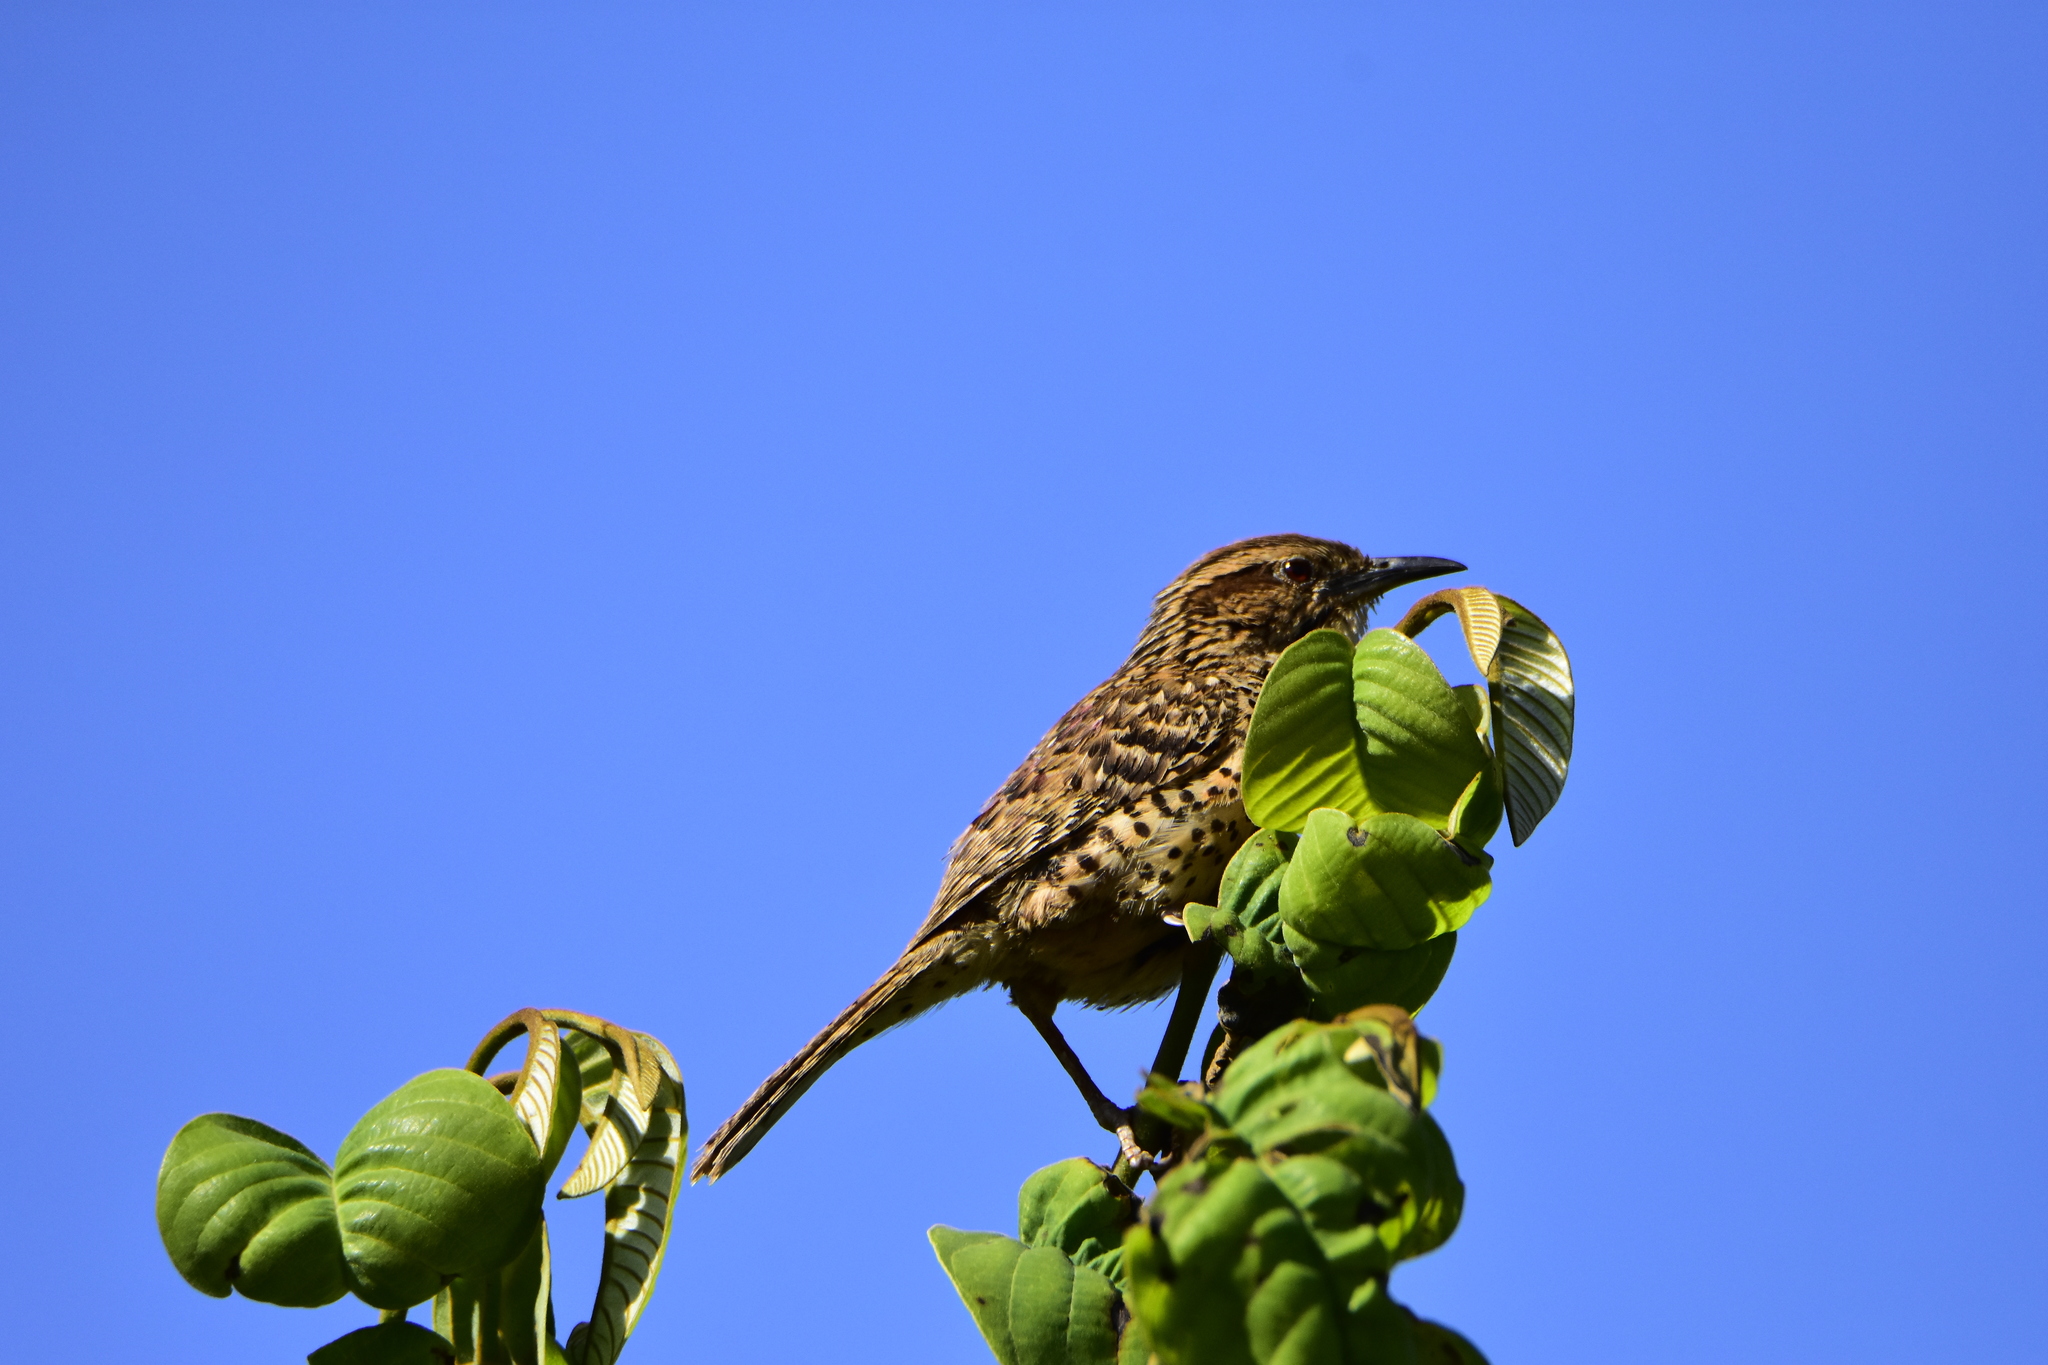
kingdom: Animalia
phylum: Chordata
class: Aves
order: Passeriformes
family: Troglodytidae
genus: Campylorhynchus
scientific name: Campylorhynchus gularis
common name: Spotted wren
